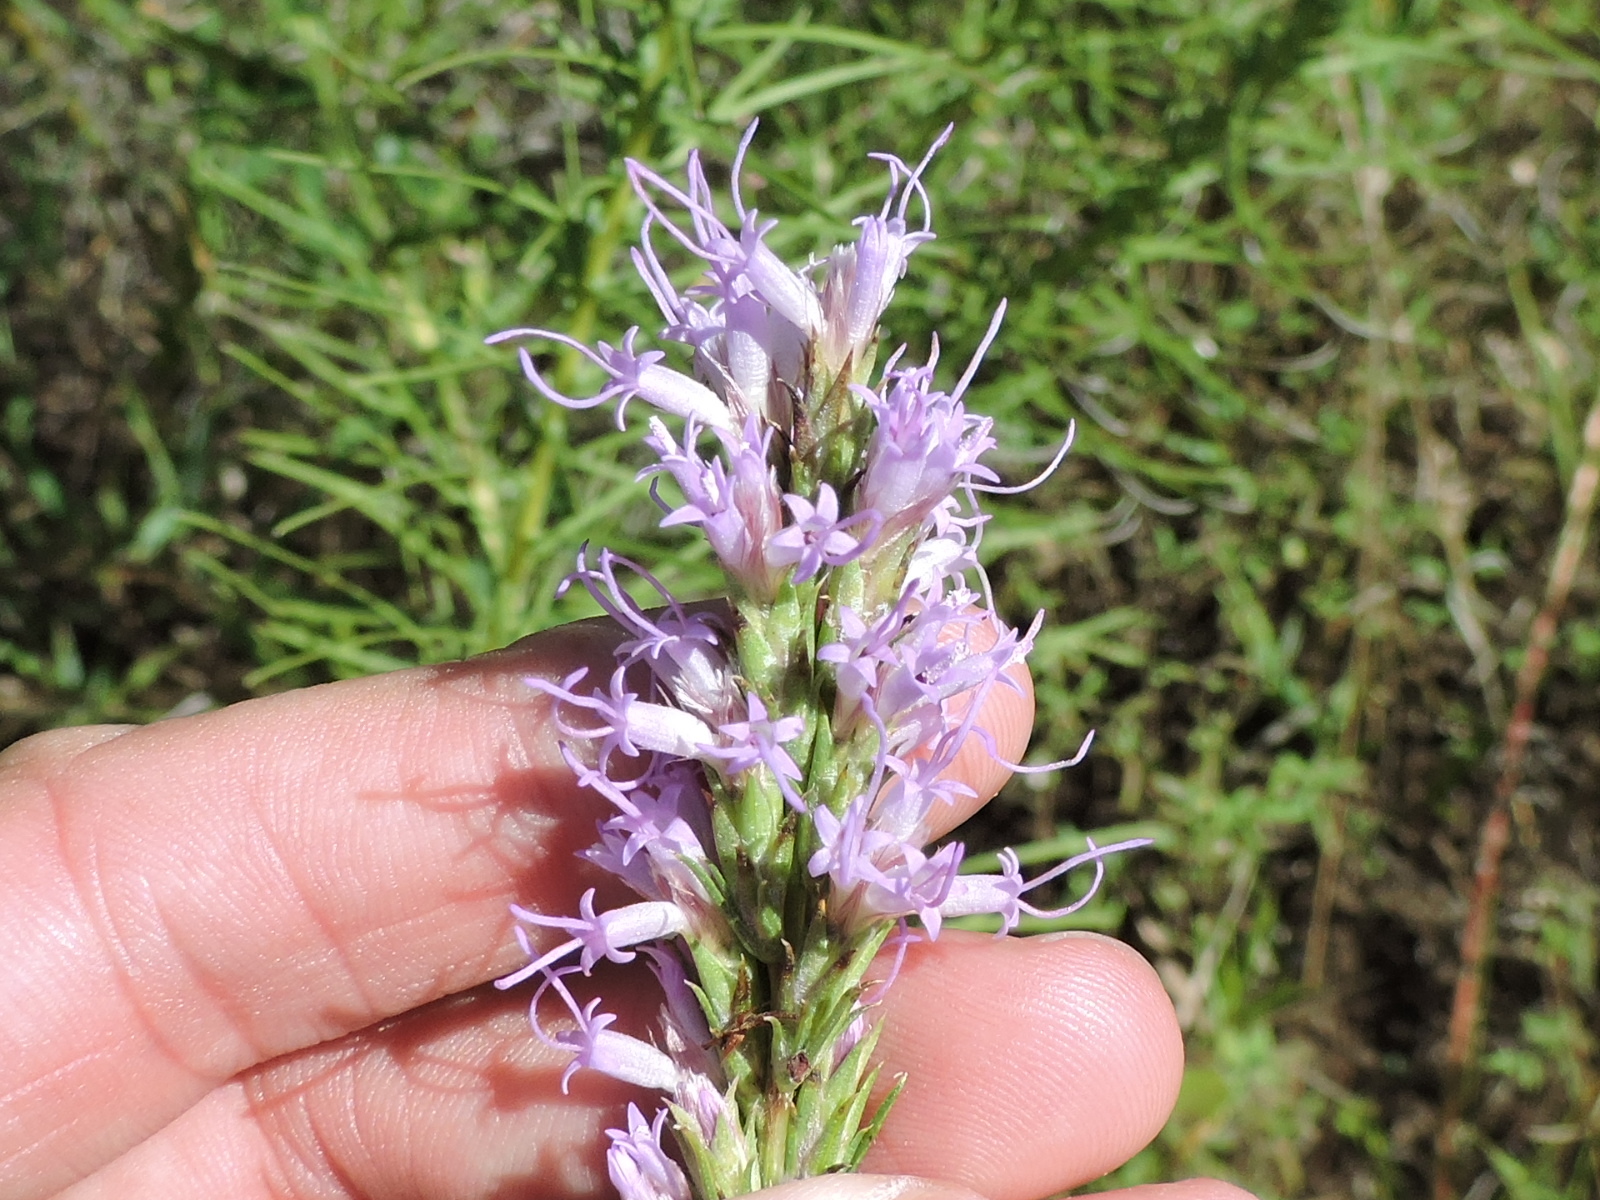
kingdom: Plantae
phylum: Tracheophyta
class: Magnoliopsida
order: Asterales
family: Asteraceae
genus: Liatris
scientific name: Liatris punctata
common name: Dotted gayfeather
